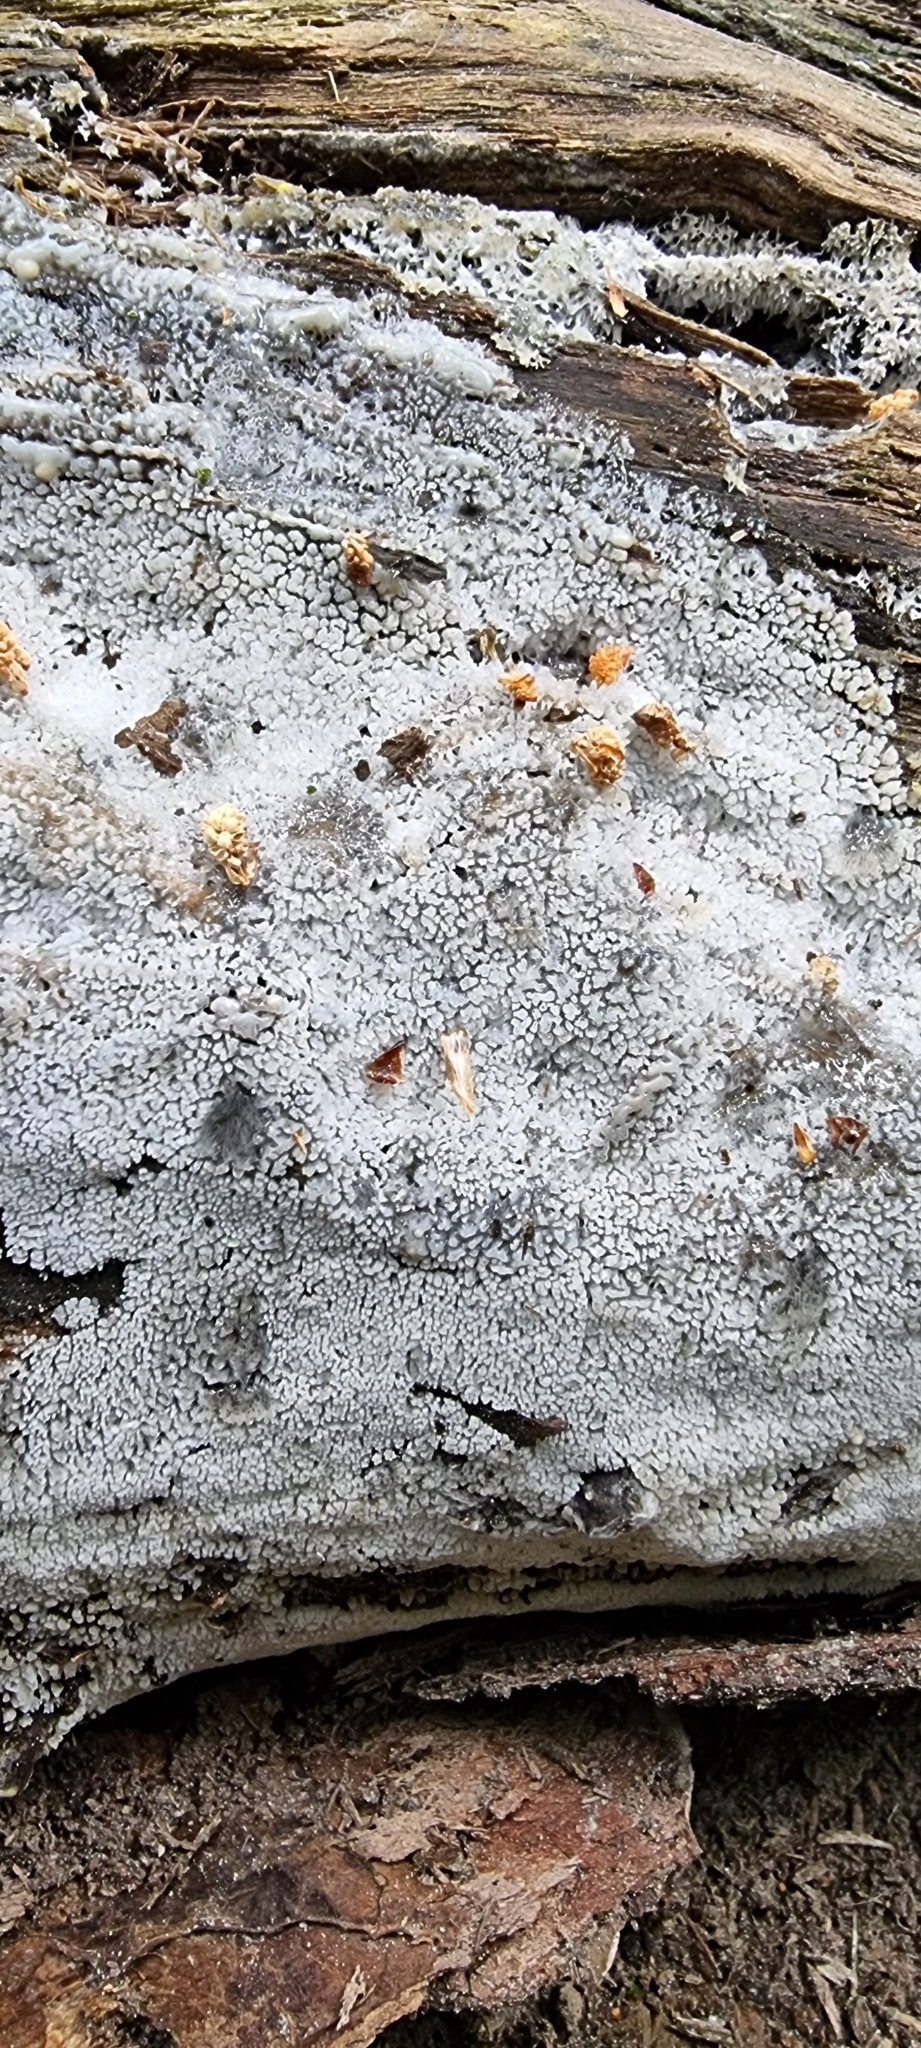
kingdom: Protozoa
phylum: Mycetozoa
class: Protosteliomycetes
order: Ceratiomyxales
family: Ceratiomyxaceae
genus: Ceratiomyxa
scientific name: Ceratiomyxa fruticulosa
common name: Honeycomb coral slime mold
